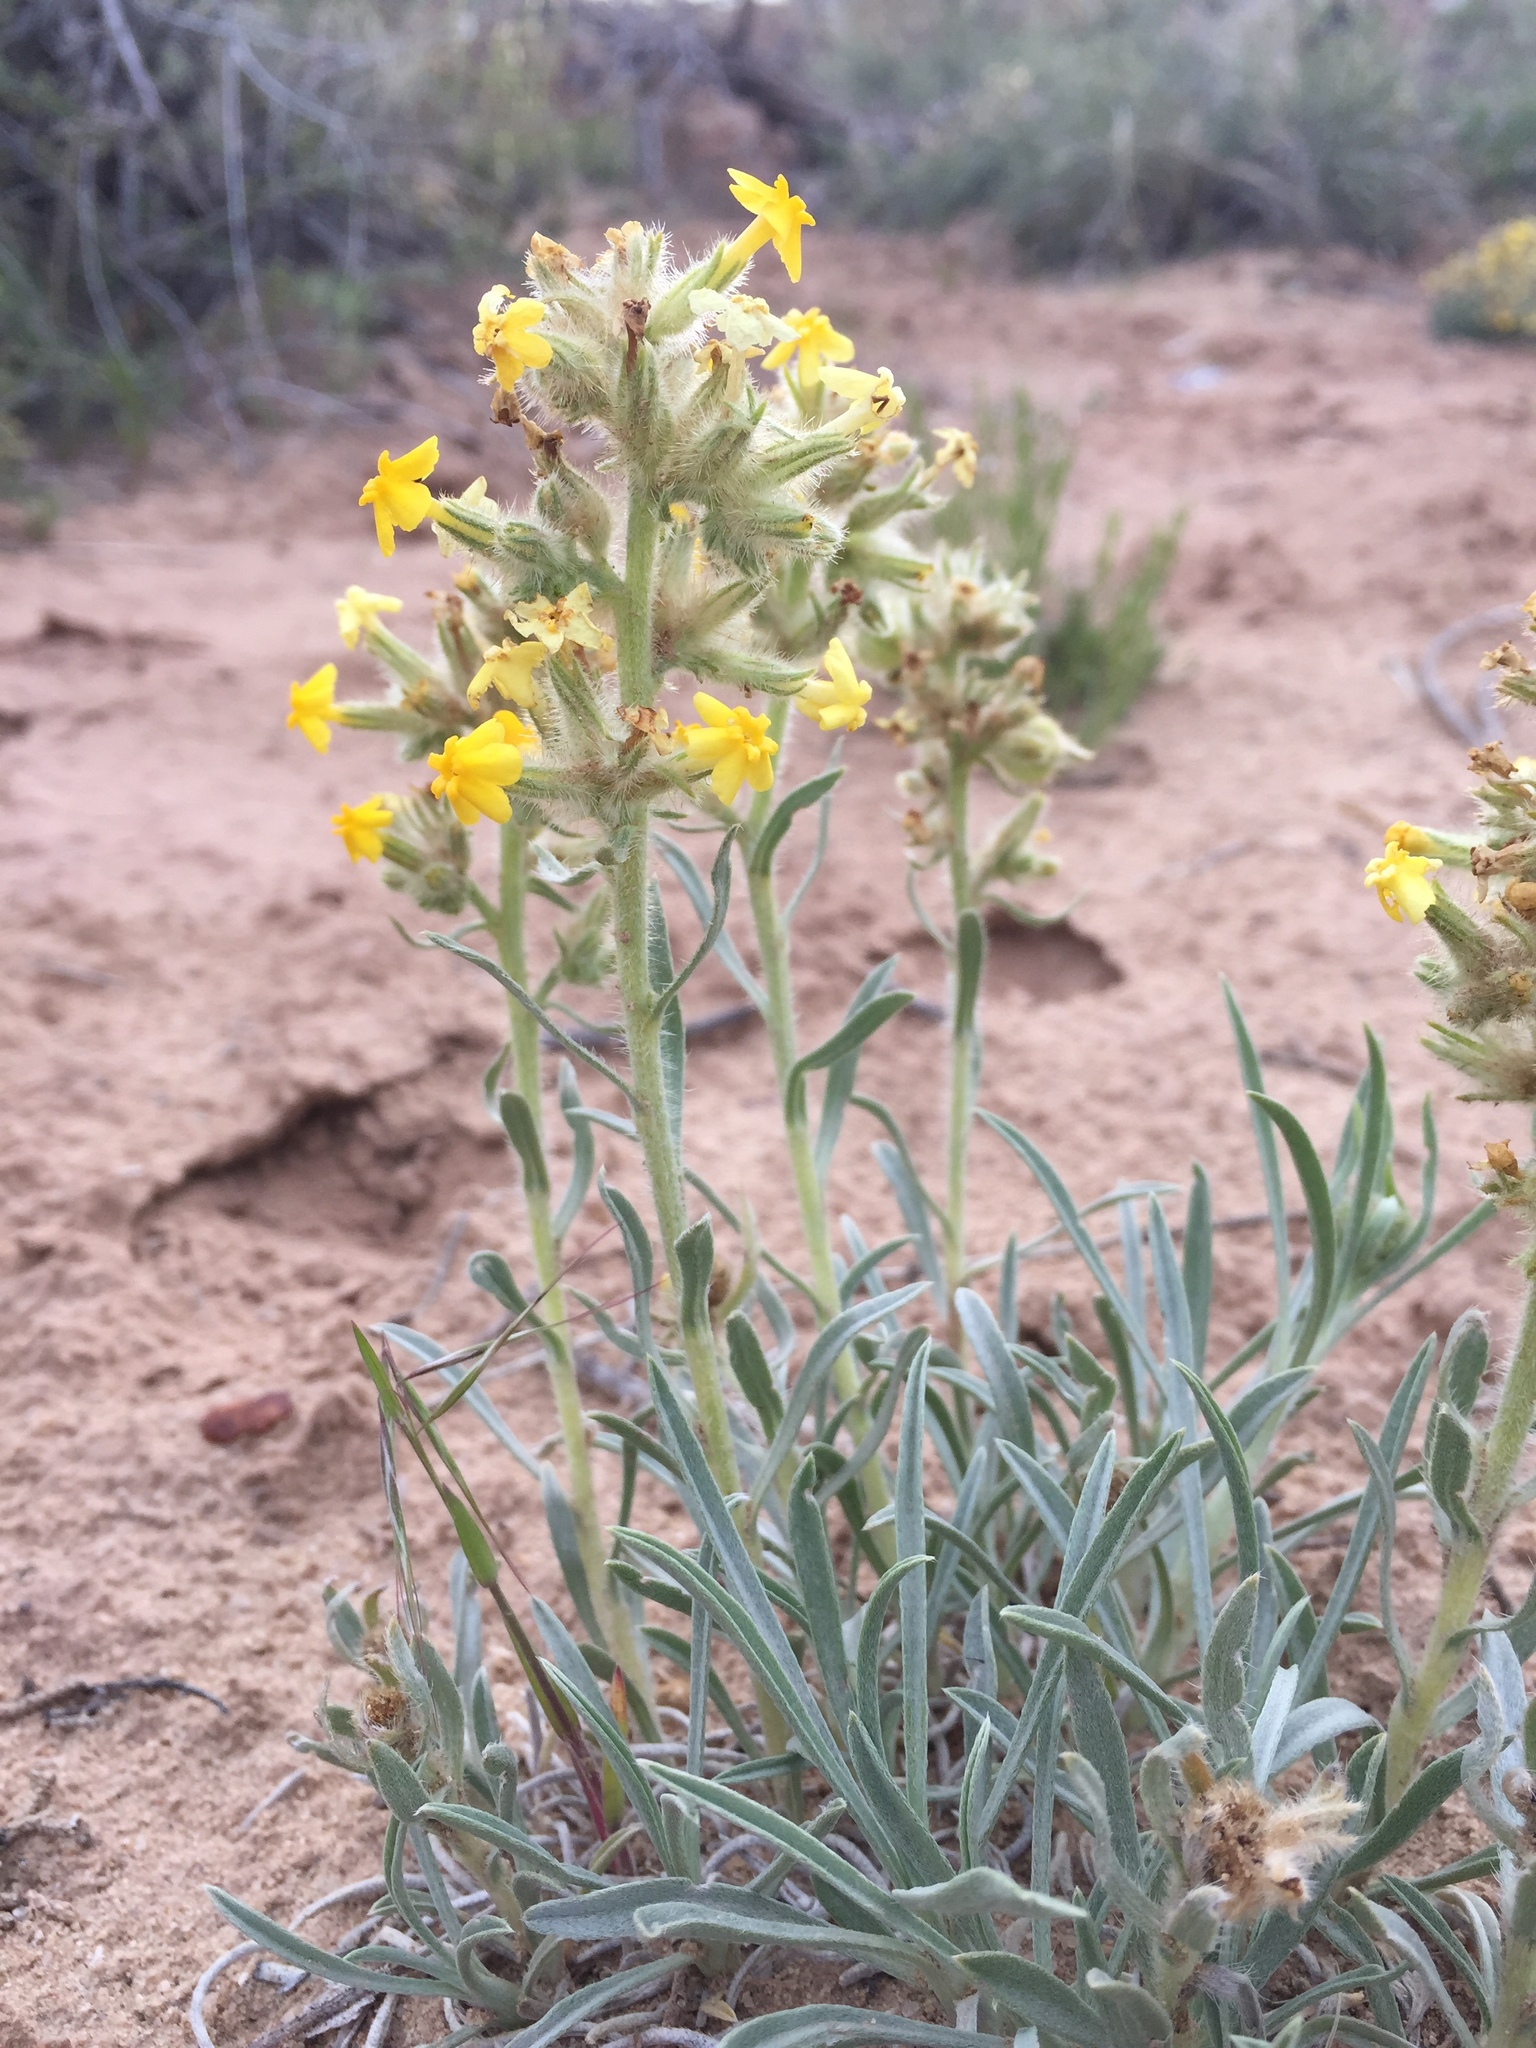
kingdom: Plantae
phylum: Tracheophyta
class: Magnoliopsida
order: Boraginales
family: Boraginaceae
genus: Oreocarya
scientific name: Oreocarya flava
